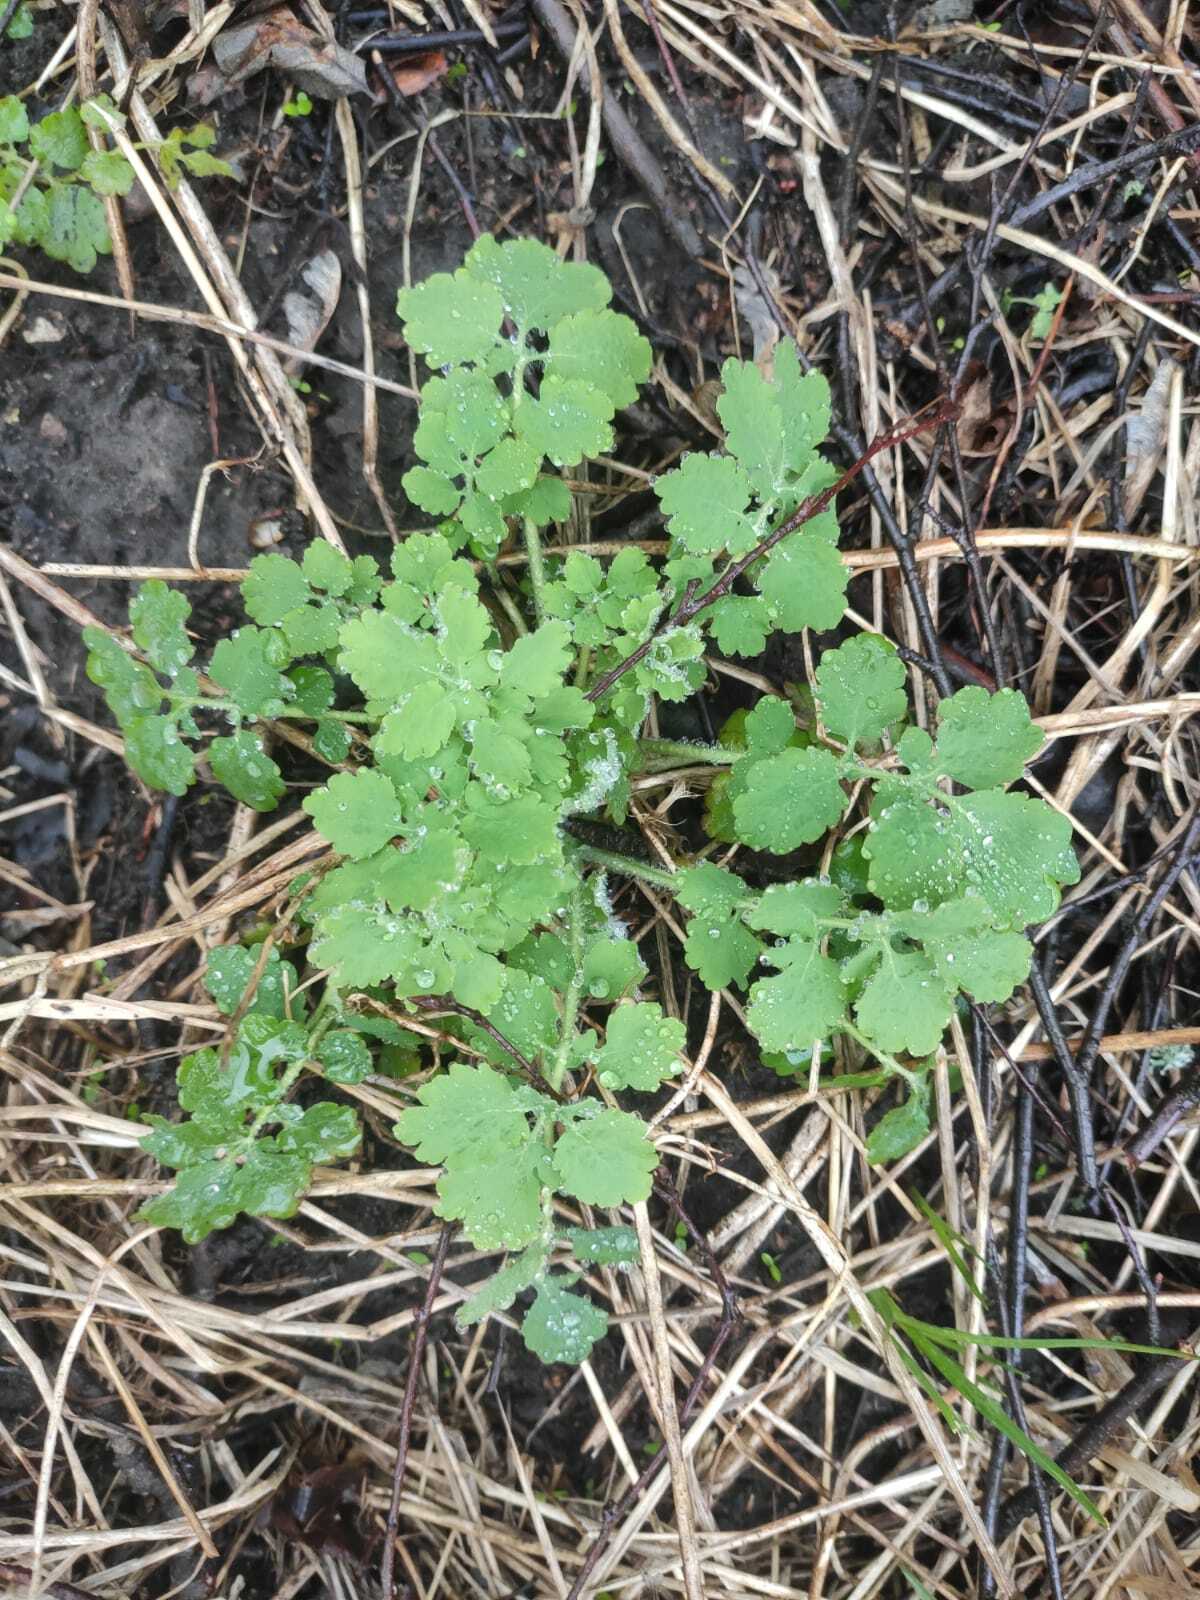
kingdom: Plantae
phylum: Tracheophyta
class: Magnoliopsida
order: Ranunculales
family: Papaveraceae
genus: Chelidonium
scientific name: Chelidonium majus
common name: Greater celandine
